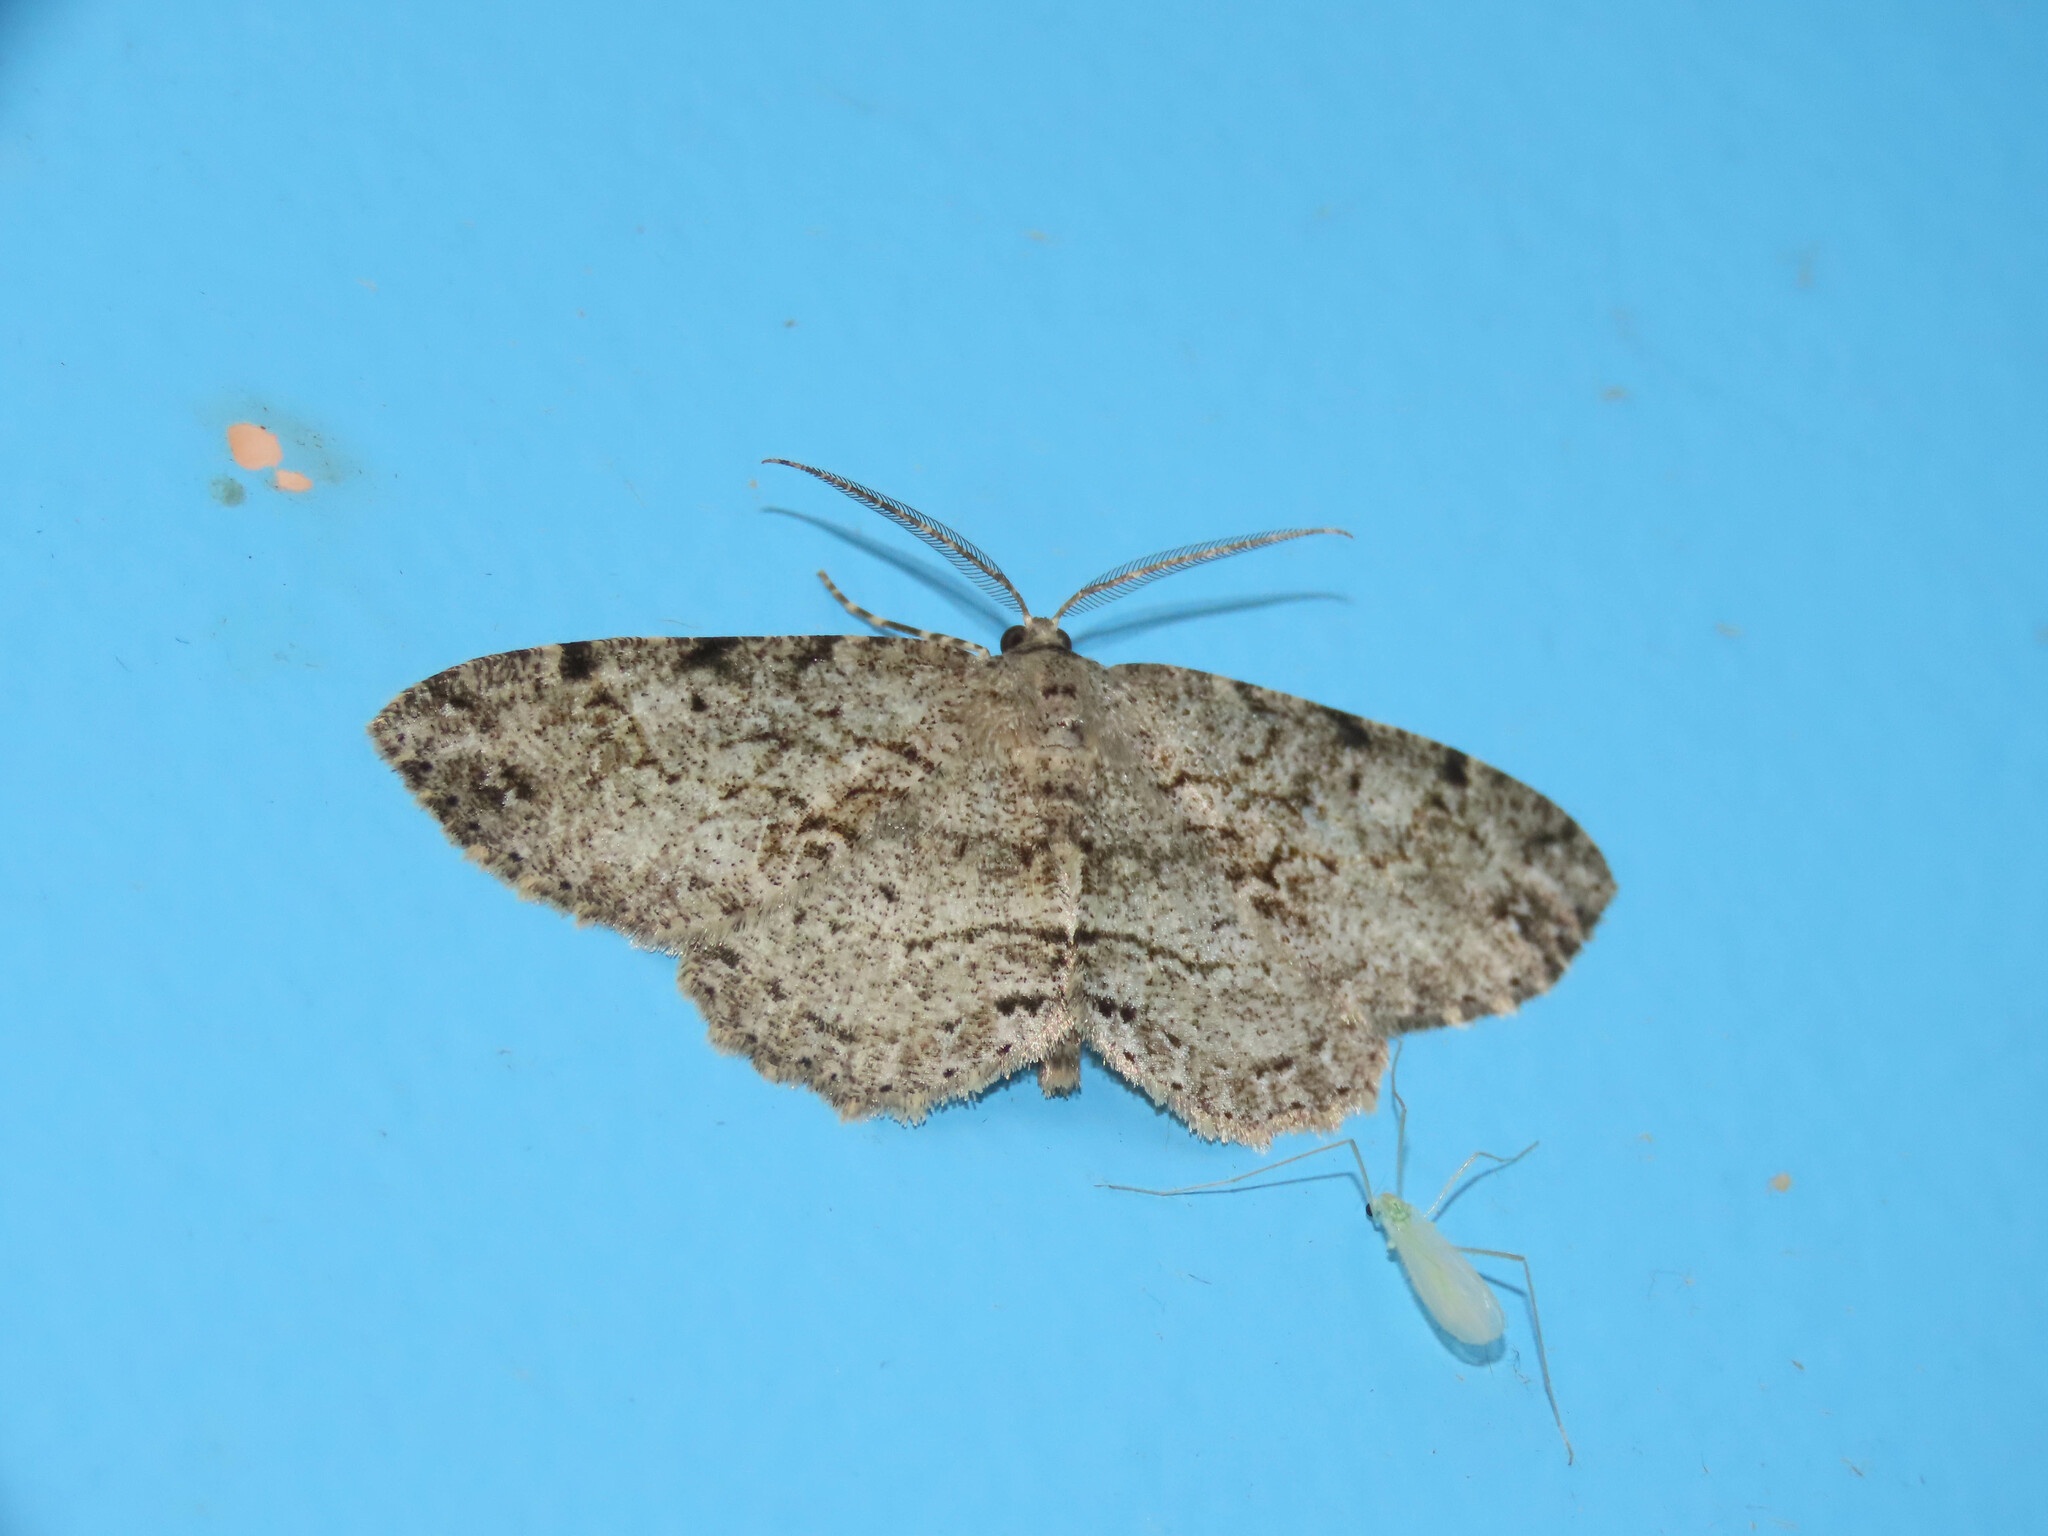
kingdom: Animalia
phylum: Arthropoda
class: Insecta
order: Lepidoptera
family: Geometridae
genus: Melanolophia
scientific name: Melanolophia canadaria
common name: Canadian melanolophia
